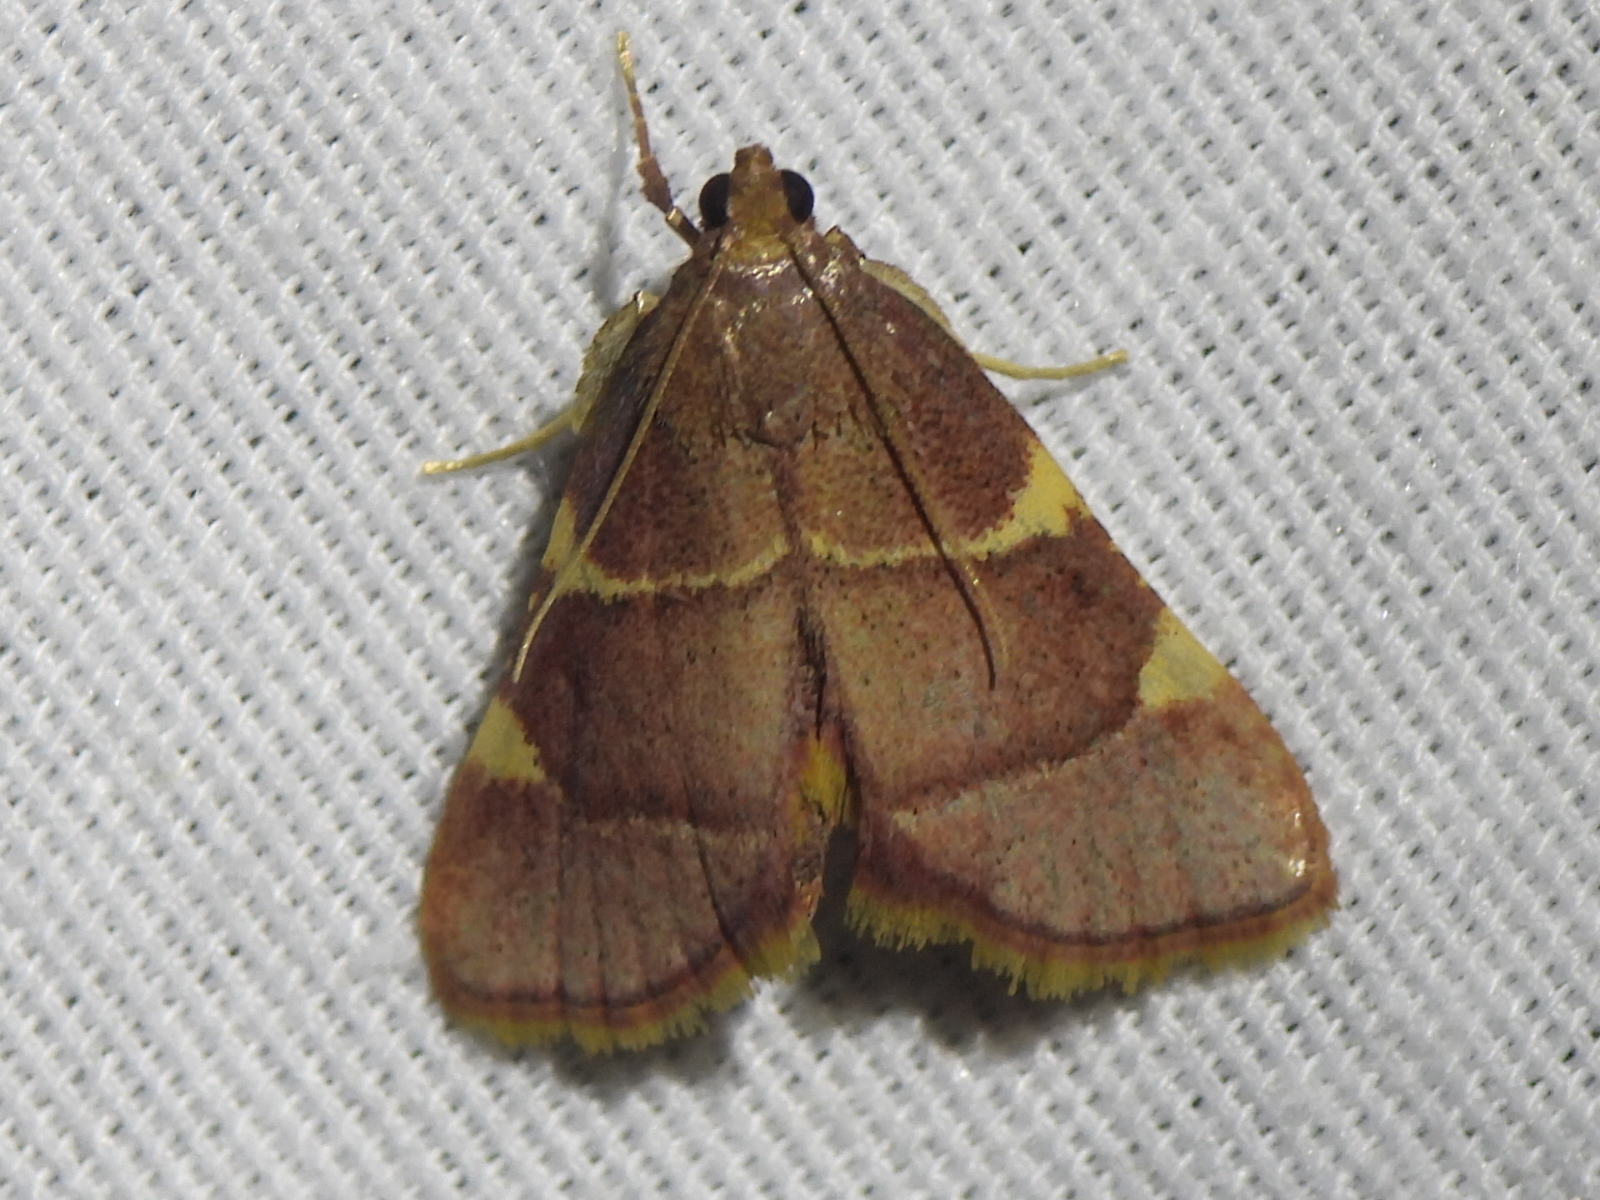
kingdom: Animalia
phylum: Arthropoda
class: Insecta
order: Lepidoptera
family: Pyralidae
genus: Hypsopygia
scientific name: Hypsopygia olinalis
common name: Yellow-fringed dolichomia moth
